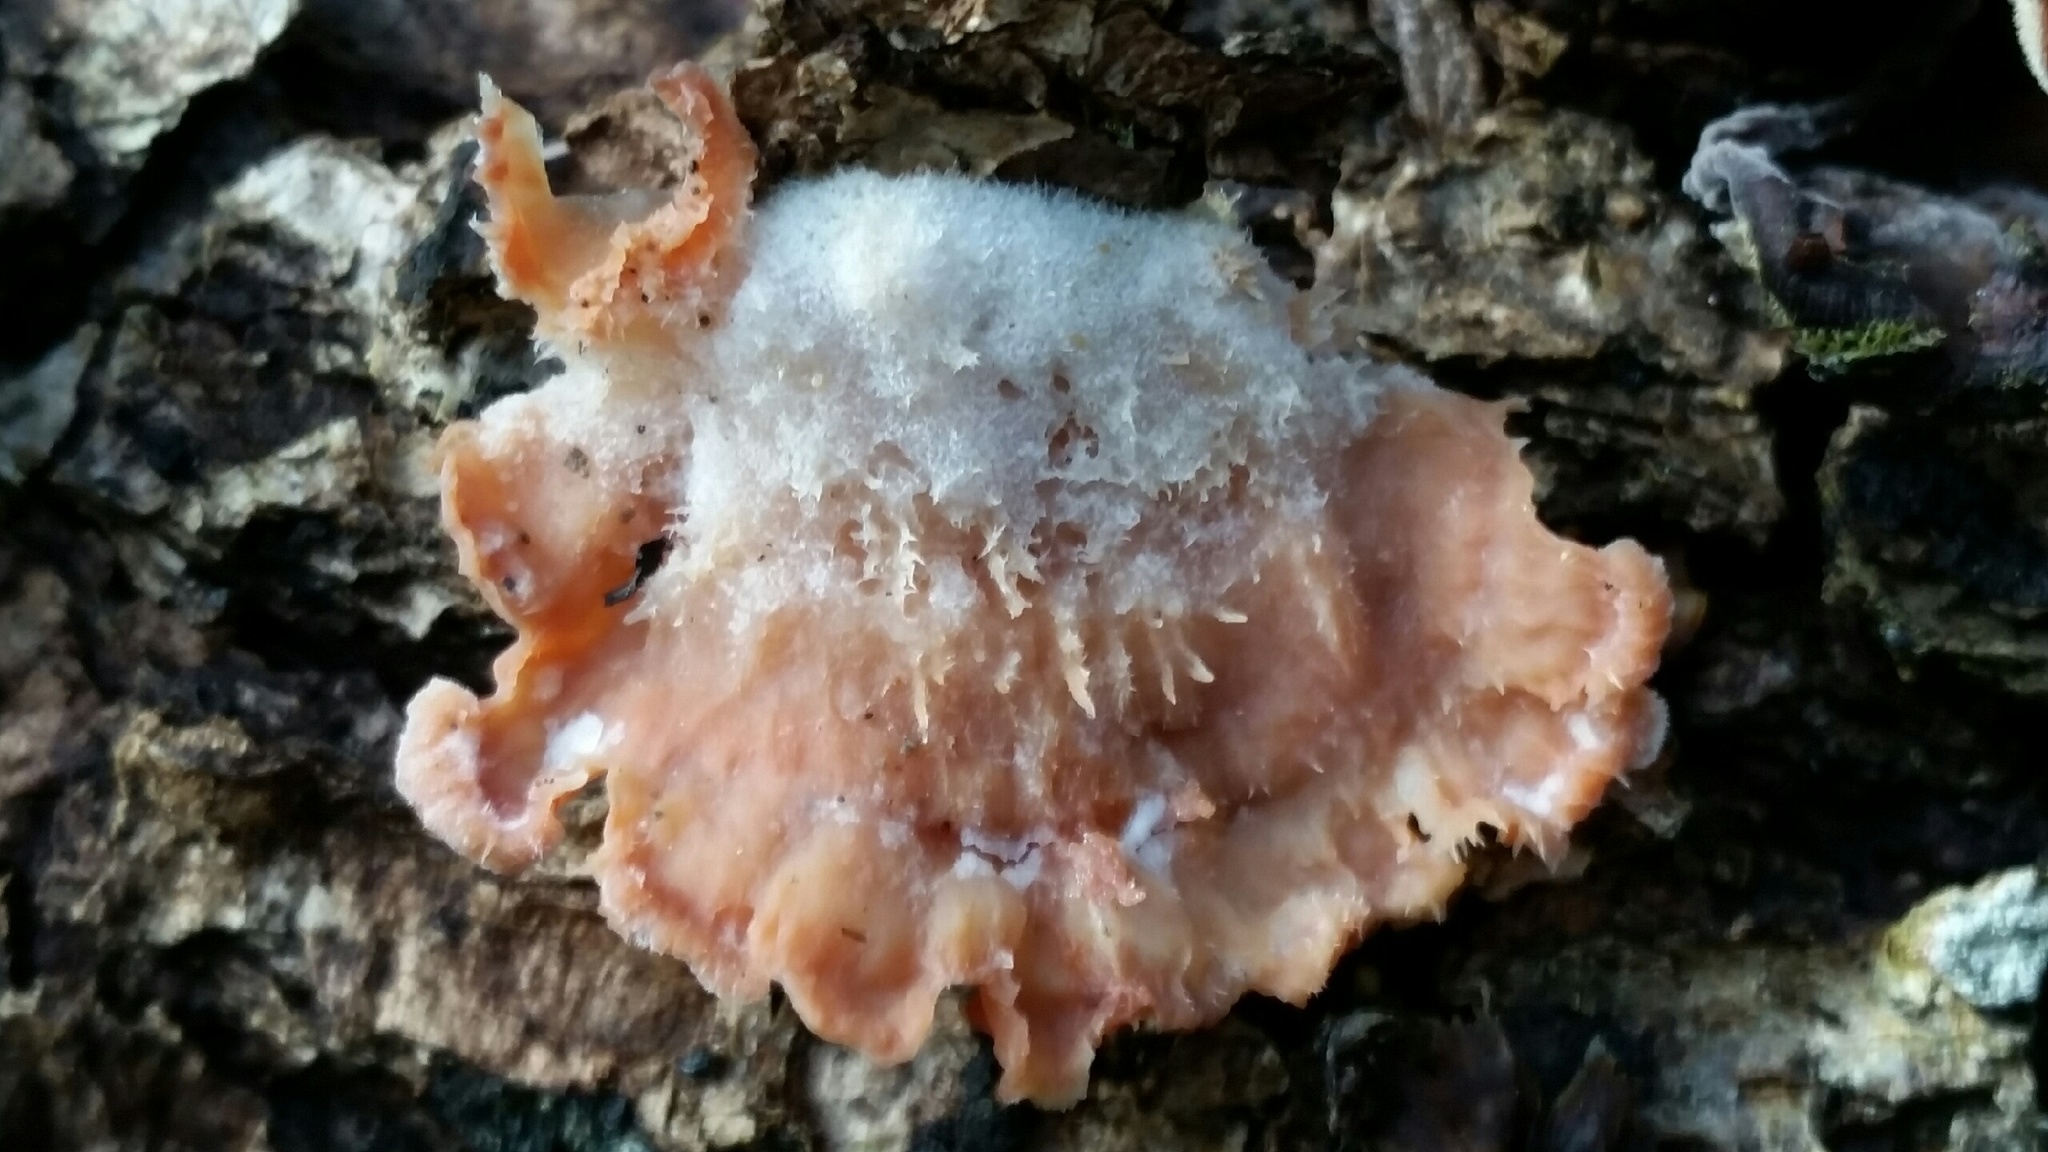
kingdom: Fungi
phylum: Basidiomycota
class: Agaricomycetes
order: Polyporales
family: Meruliaceae
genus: Phlebia
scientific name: Phlebia tremellosa
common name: Jelly rot
